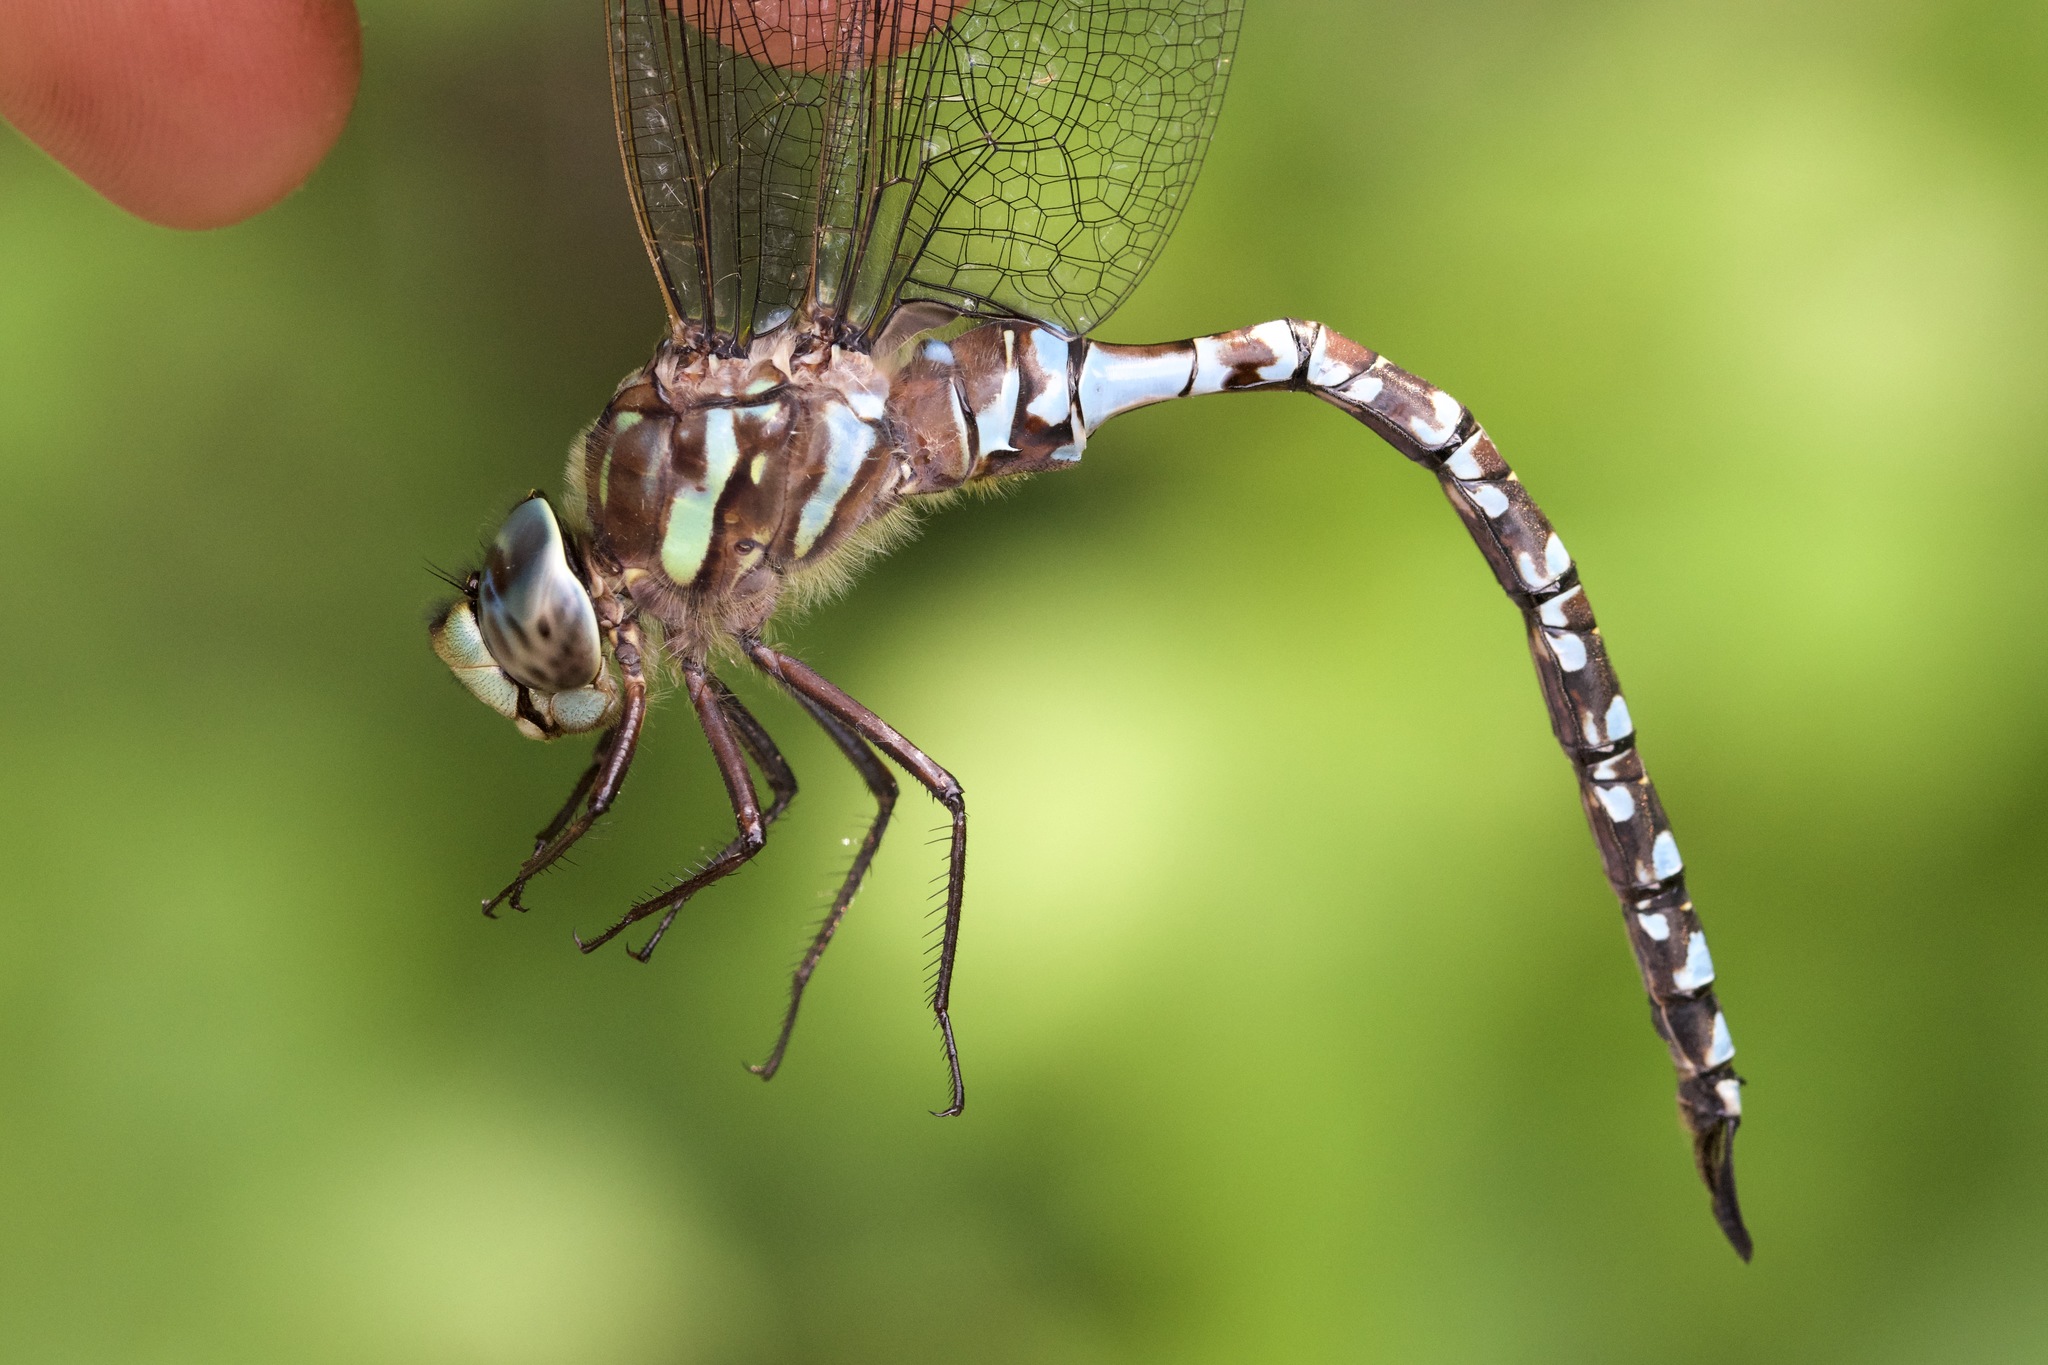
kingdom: Animalia
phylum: Arthropoda
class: Insecta
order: Odonata
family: Aeshnidae
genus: Aeshna
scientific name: Aeshna canadensis
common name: Canada darner
